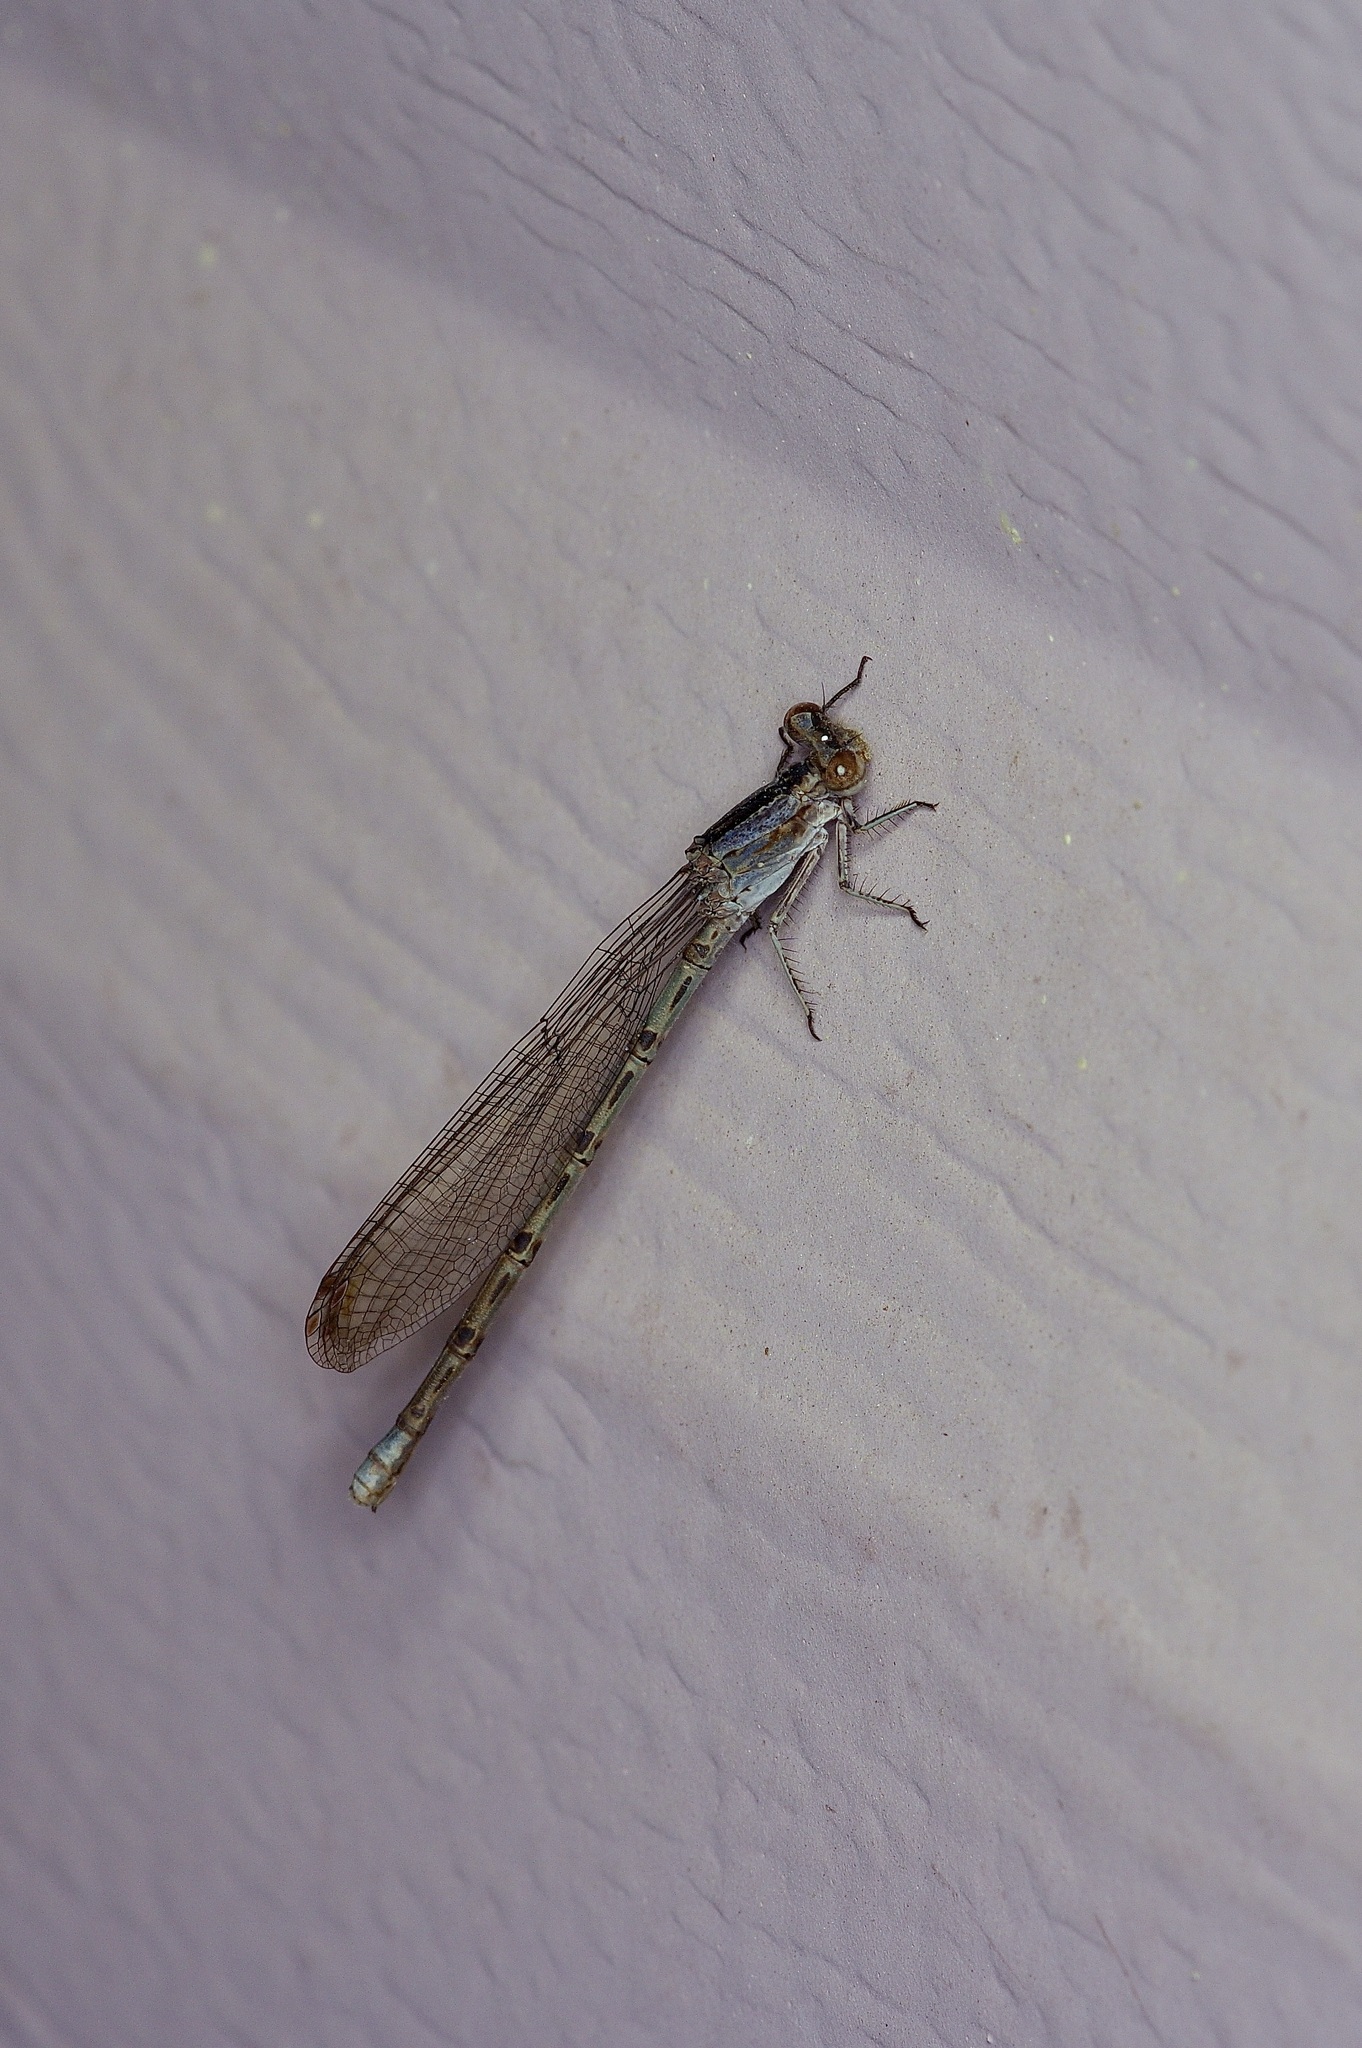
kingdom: Animalia
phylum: Arthropoda
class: Insecta
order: Odonata
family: Coenagrionidae
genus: Argia
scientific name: Argia immunda
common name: Kiowa dancer
